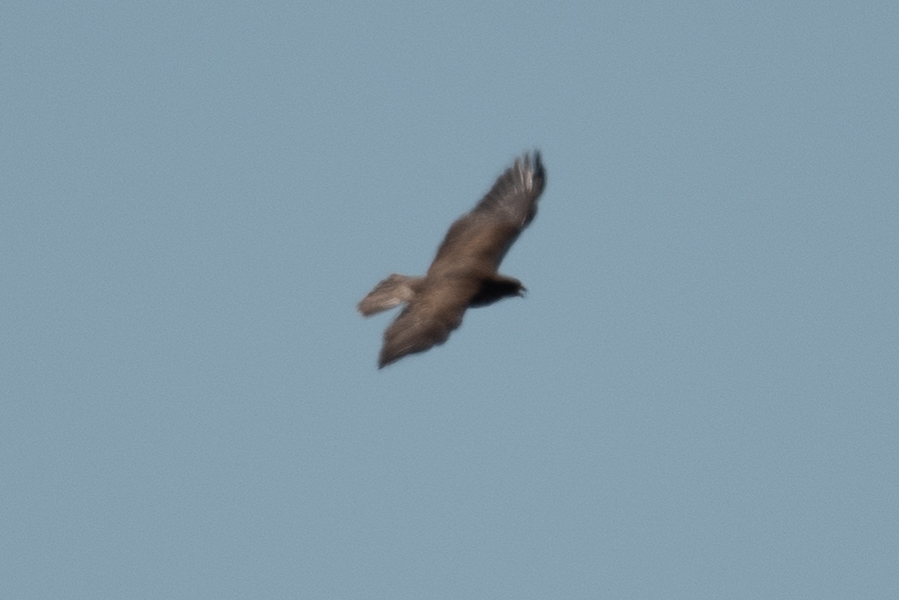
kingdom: Animalia
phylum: Chordata
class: Aves
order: Accipitriformes
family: Accipitridae
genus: Buteo
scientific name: Buteo swainsoni
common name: Swainson's hawk
